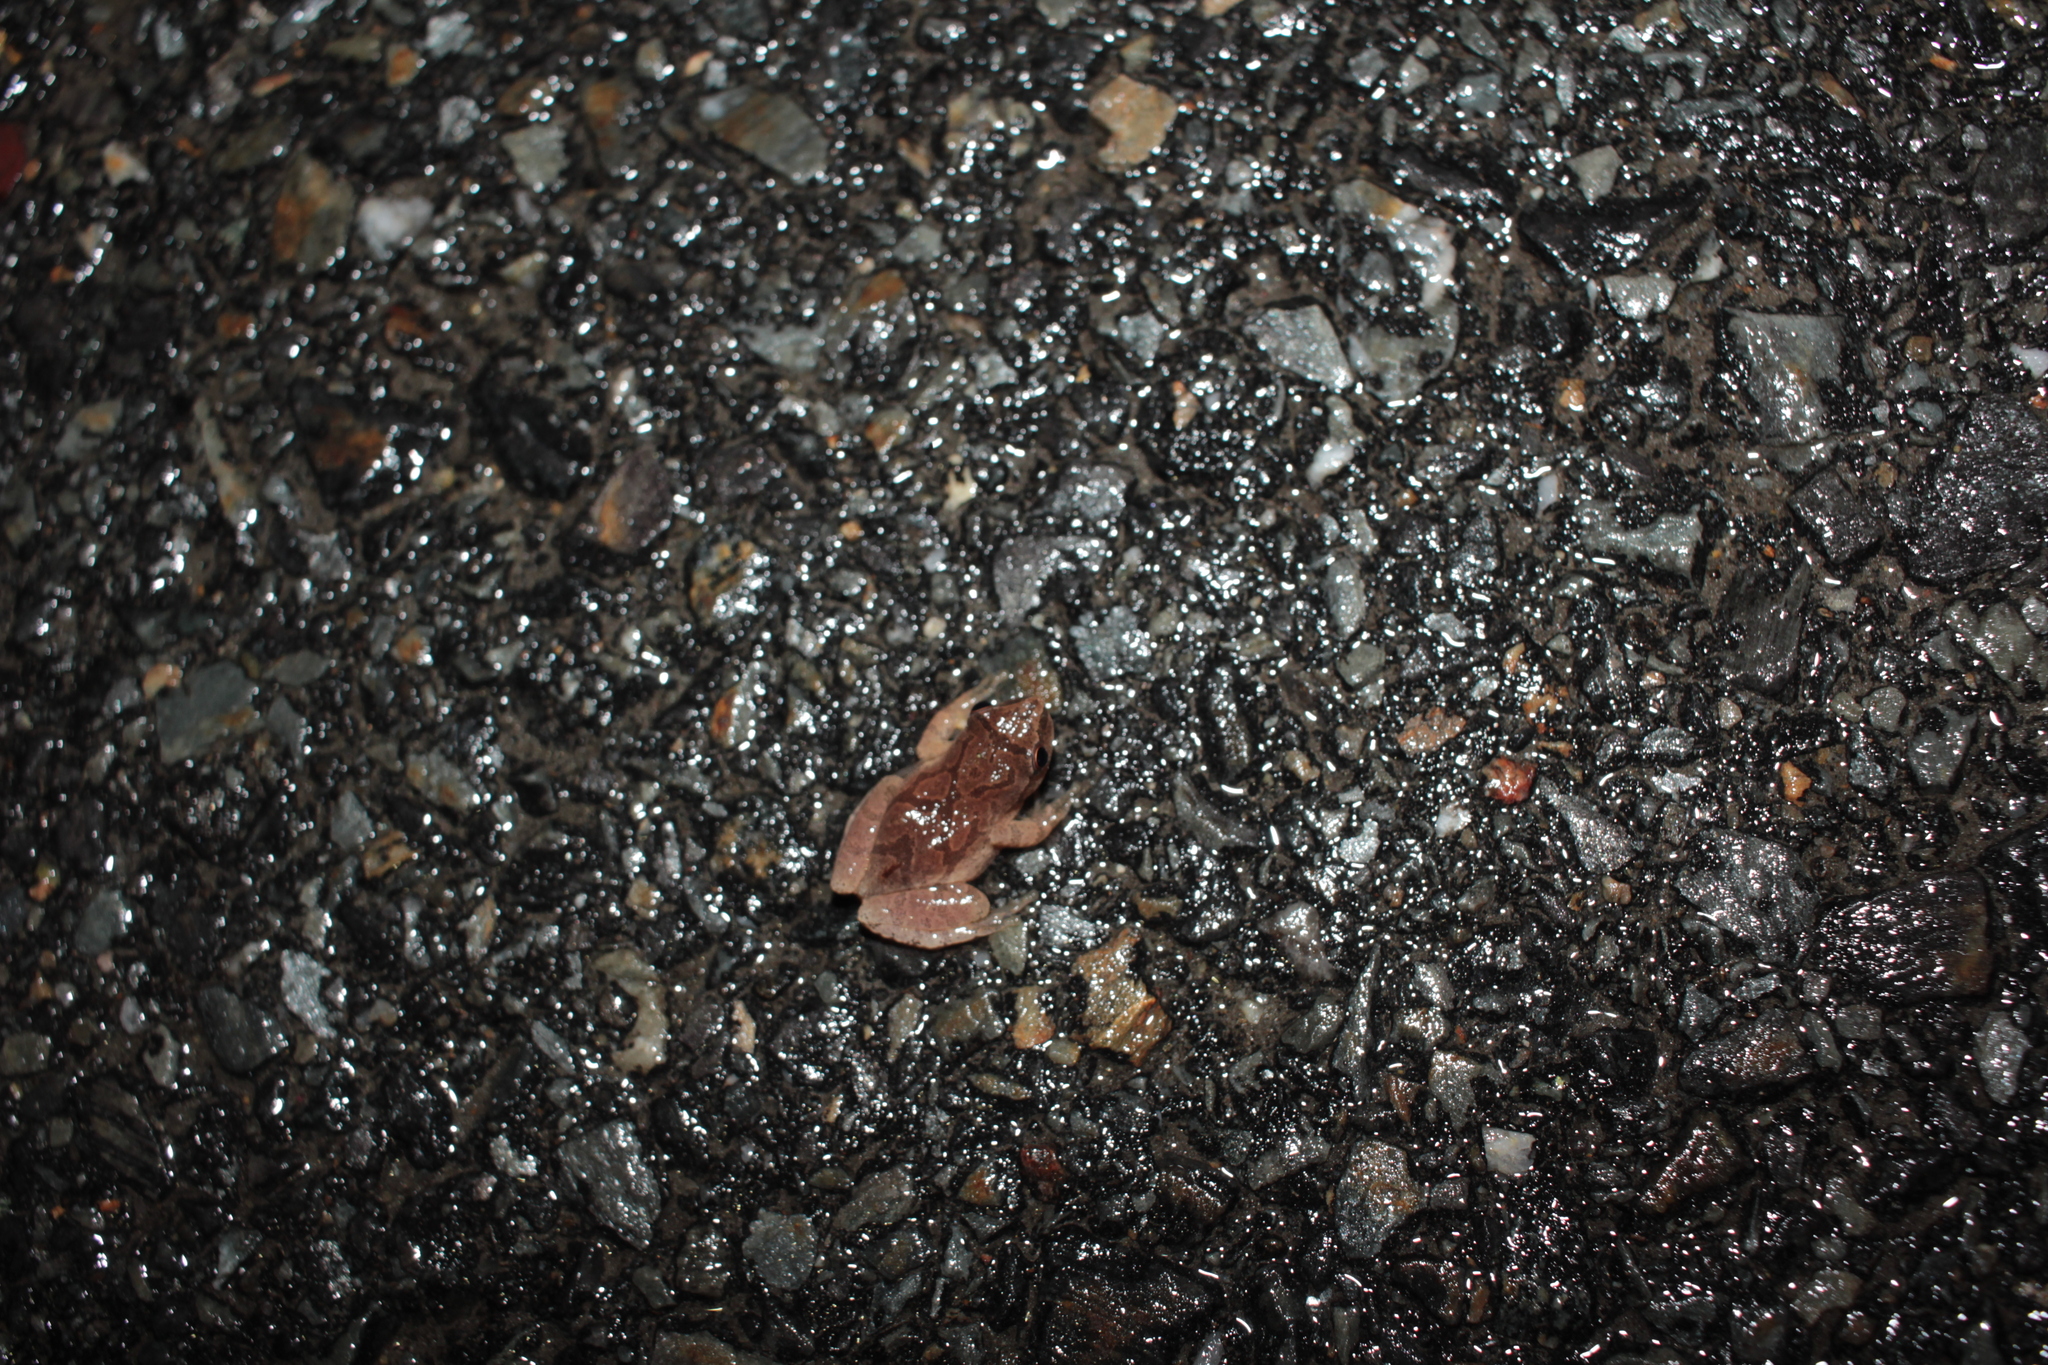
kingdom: Animalia
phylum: Chordata
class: Amphibia
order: Anura
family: Hylidae
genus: Pseudacris
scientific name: Pseudacris crucifer
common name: Spring peeper
